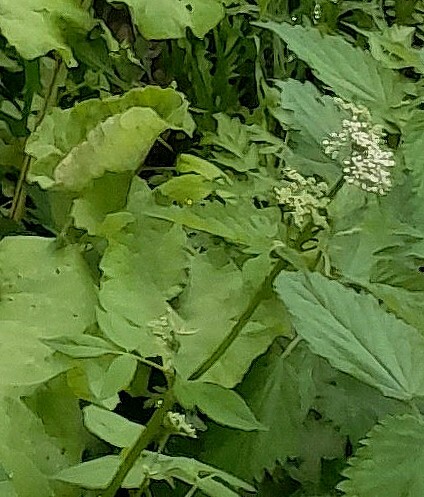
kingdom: Plantae
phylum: Tracheophyta
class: Magnoliopsida
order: Apiales
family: Apiaceae
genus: Aegopodium
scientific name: Aegopodium podagraria
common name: Ground-elder
